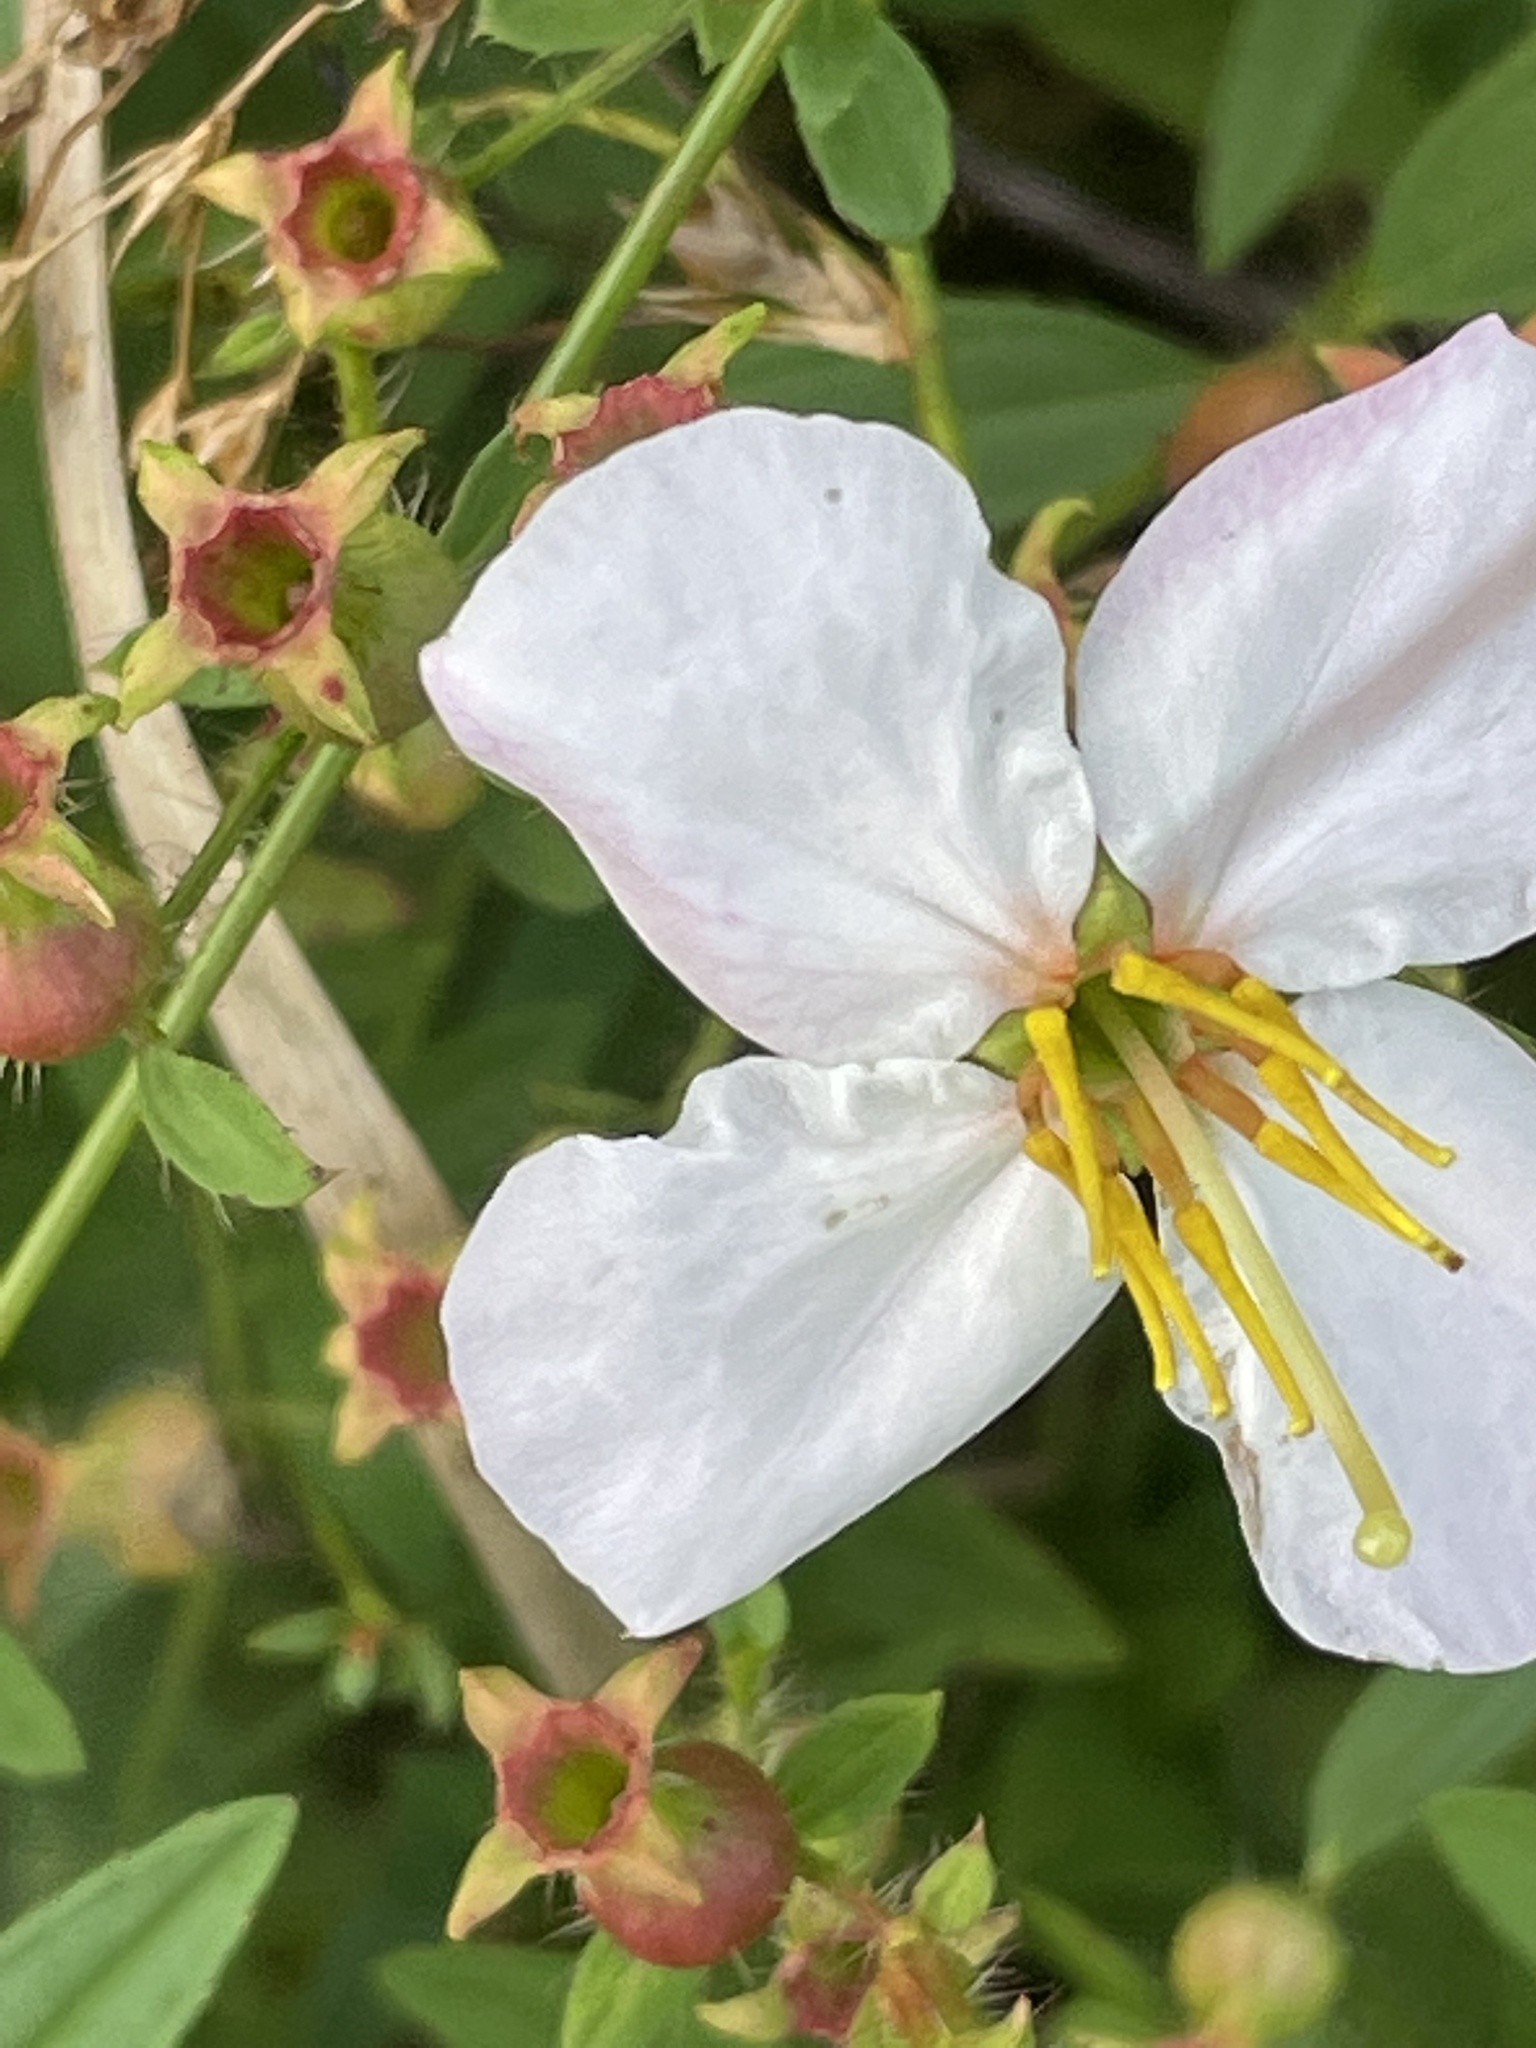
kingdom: Plantae
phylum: Tracheophyta
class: Magnoliopsida
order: Myrtales
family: Melastomataceae
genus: Rhexia
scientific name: Rhexia mariana
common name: Dull meadow-pitcher
